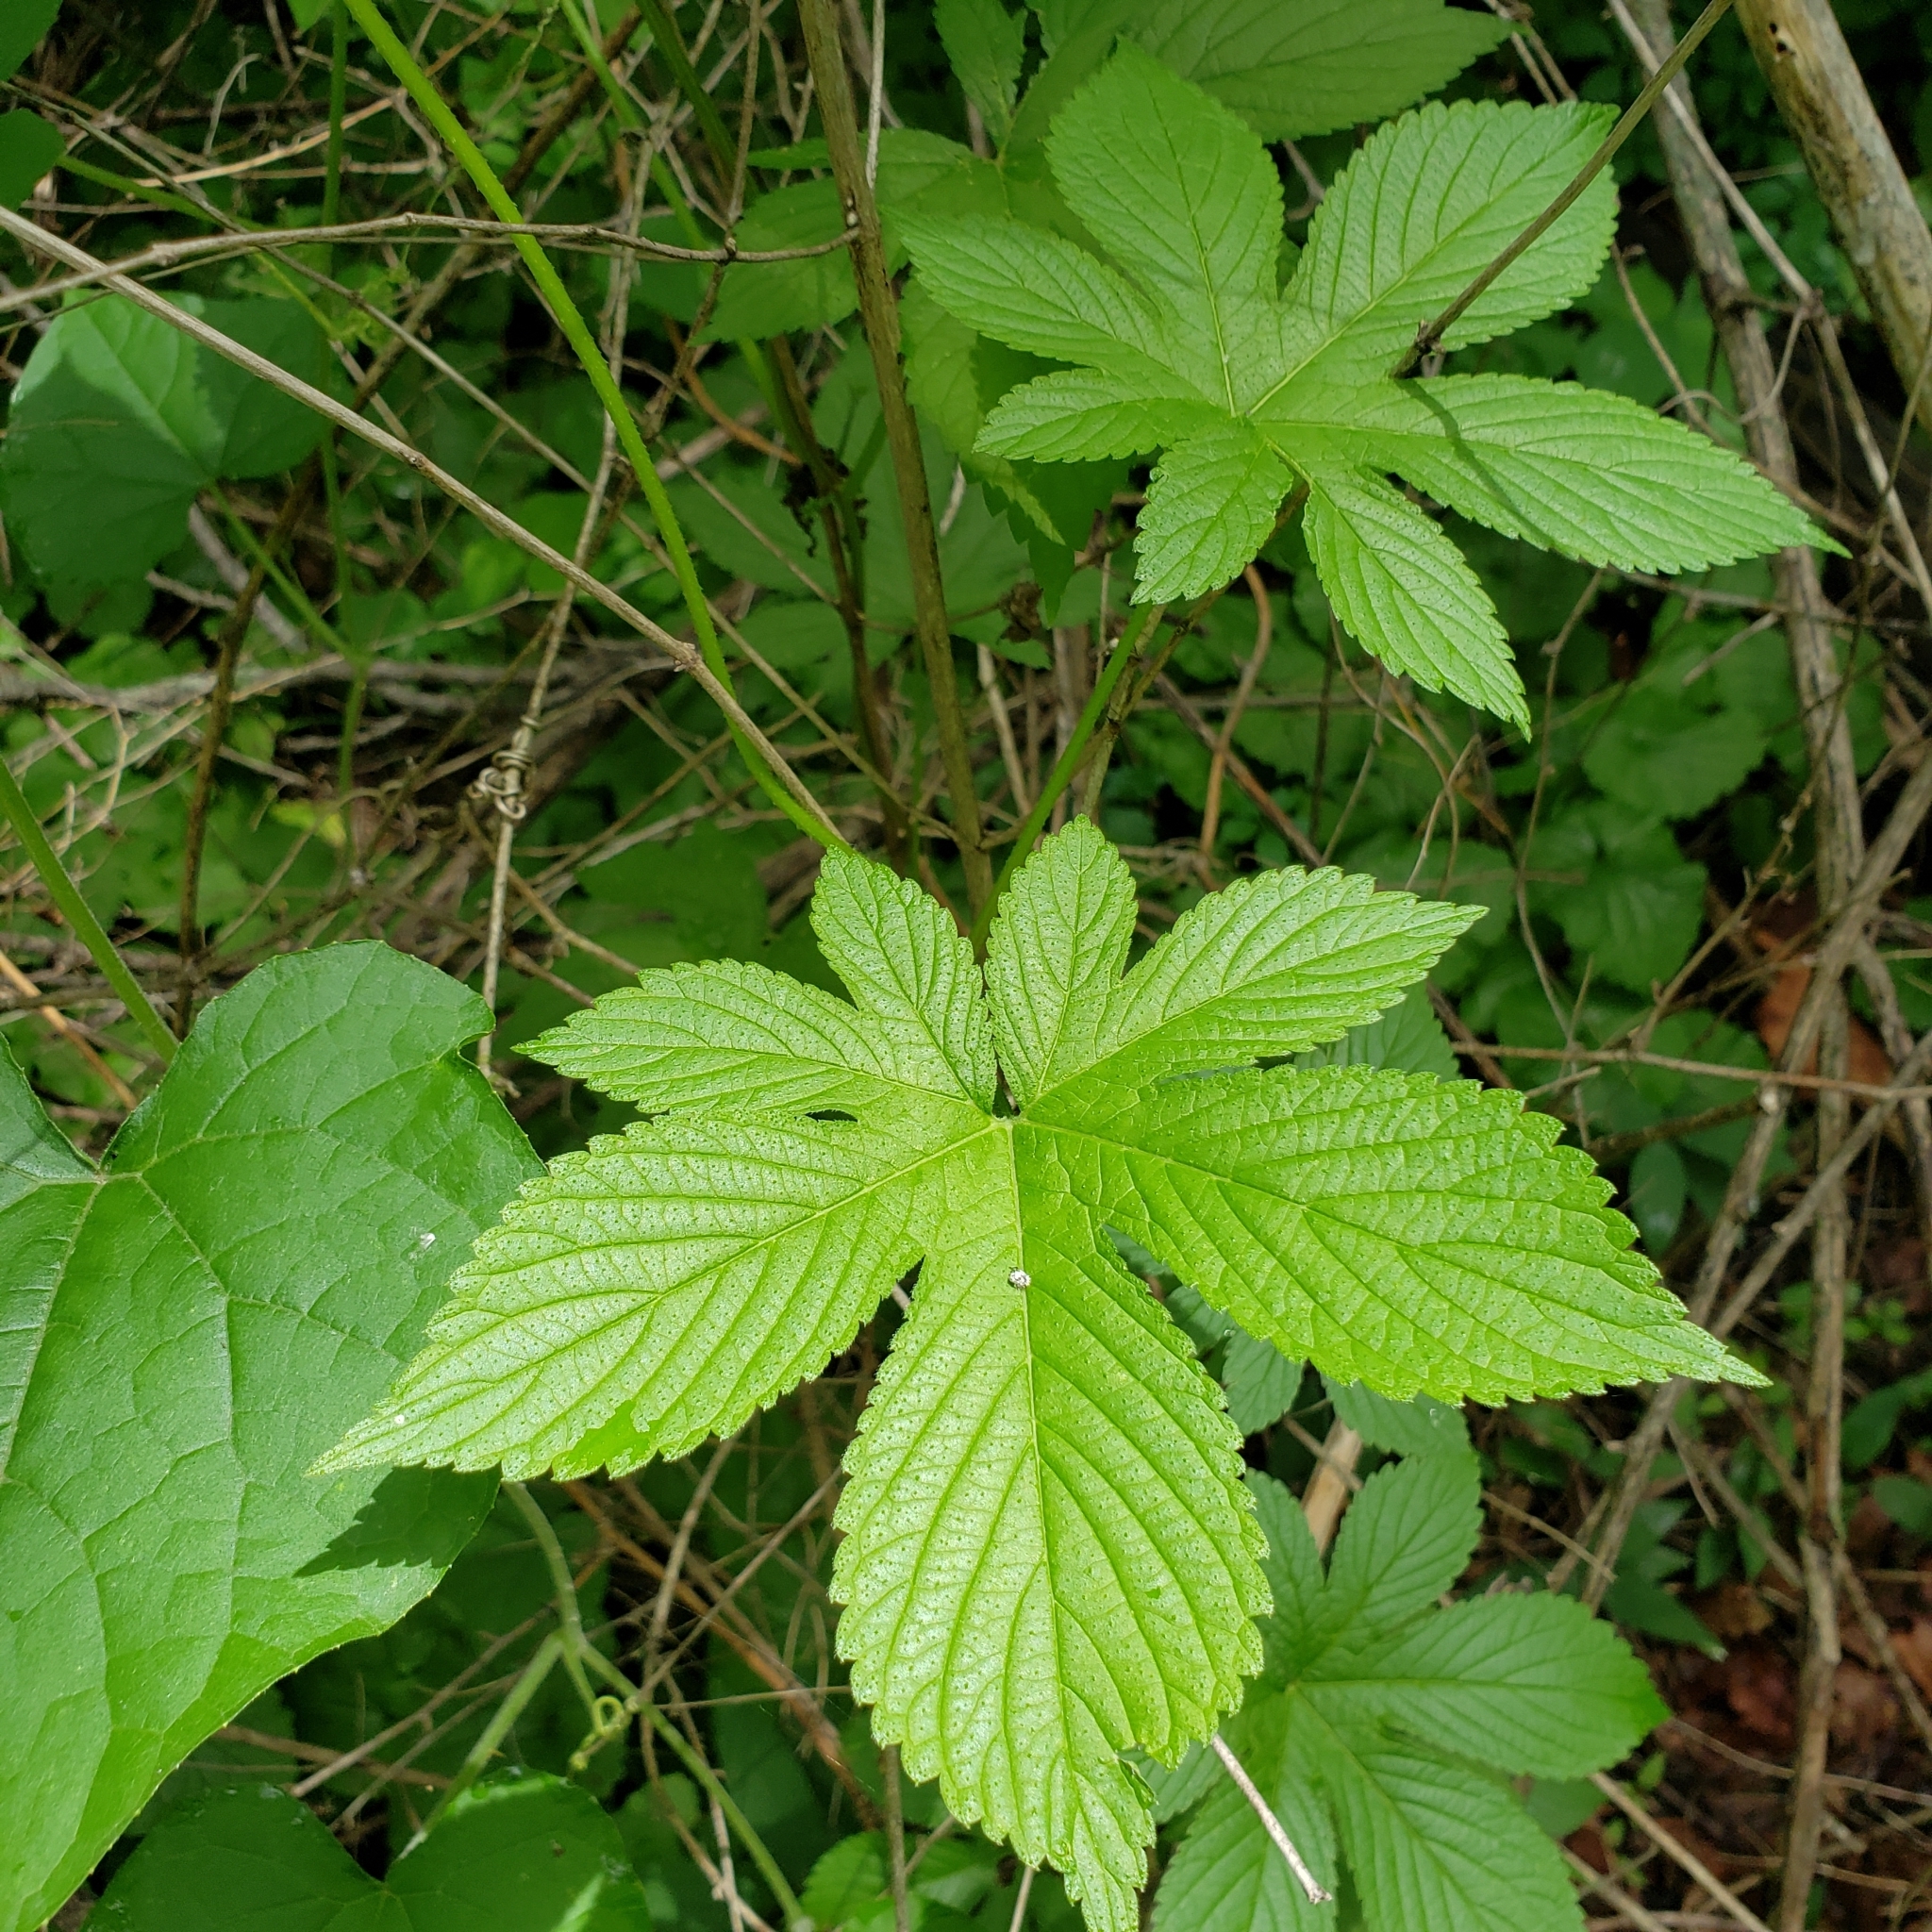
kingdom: Plantae
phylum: Tracheophyta
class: Magnoliopsida
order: Rosales
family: Cannabaceae
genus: Humulus
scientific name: Humulus scandens
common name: Japanese hop
